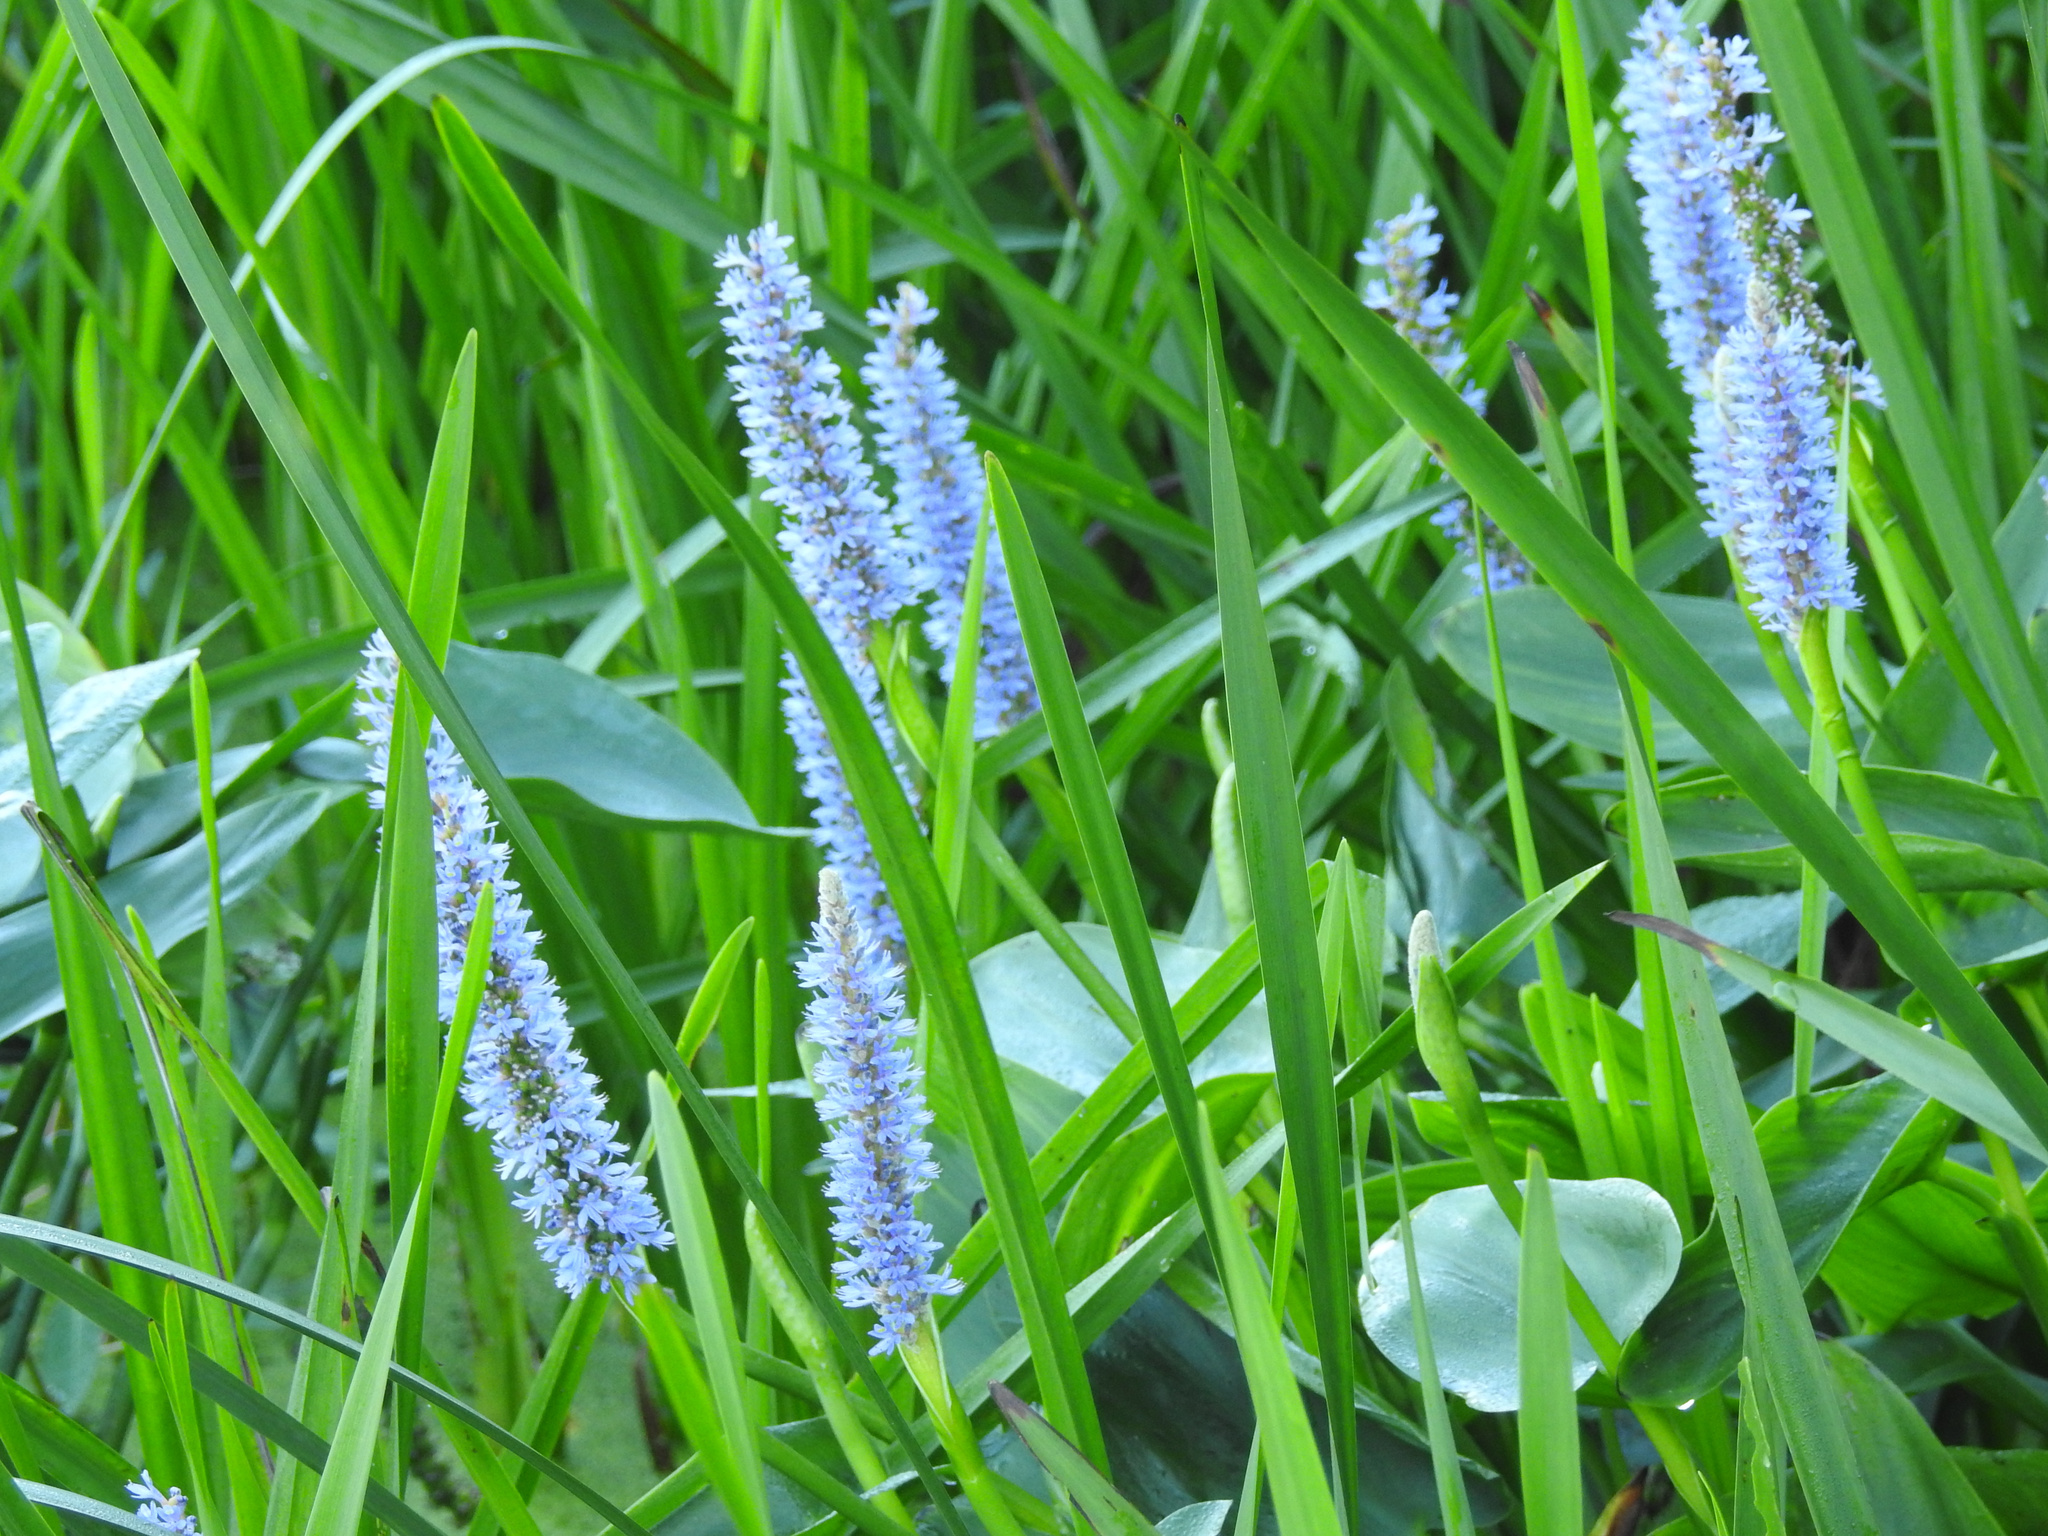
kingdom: Plantae
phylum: Tracheophyta
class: Liliopsida
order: Commelinales
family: Pontederiaceae
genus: Pontederia
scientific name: Pontederia cordata
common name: Pickerelweed
